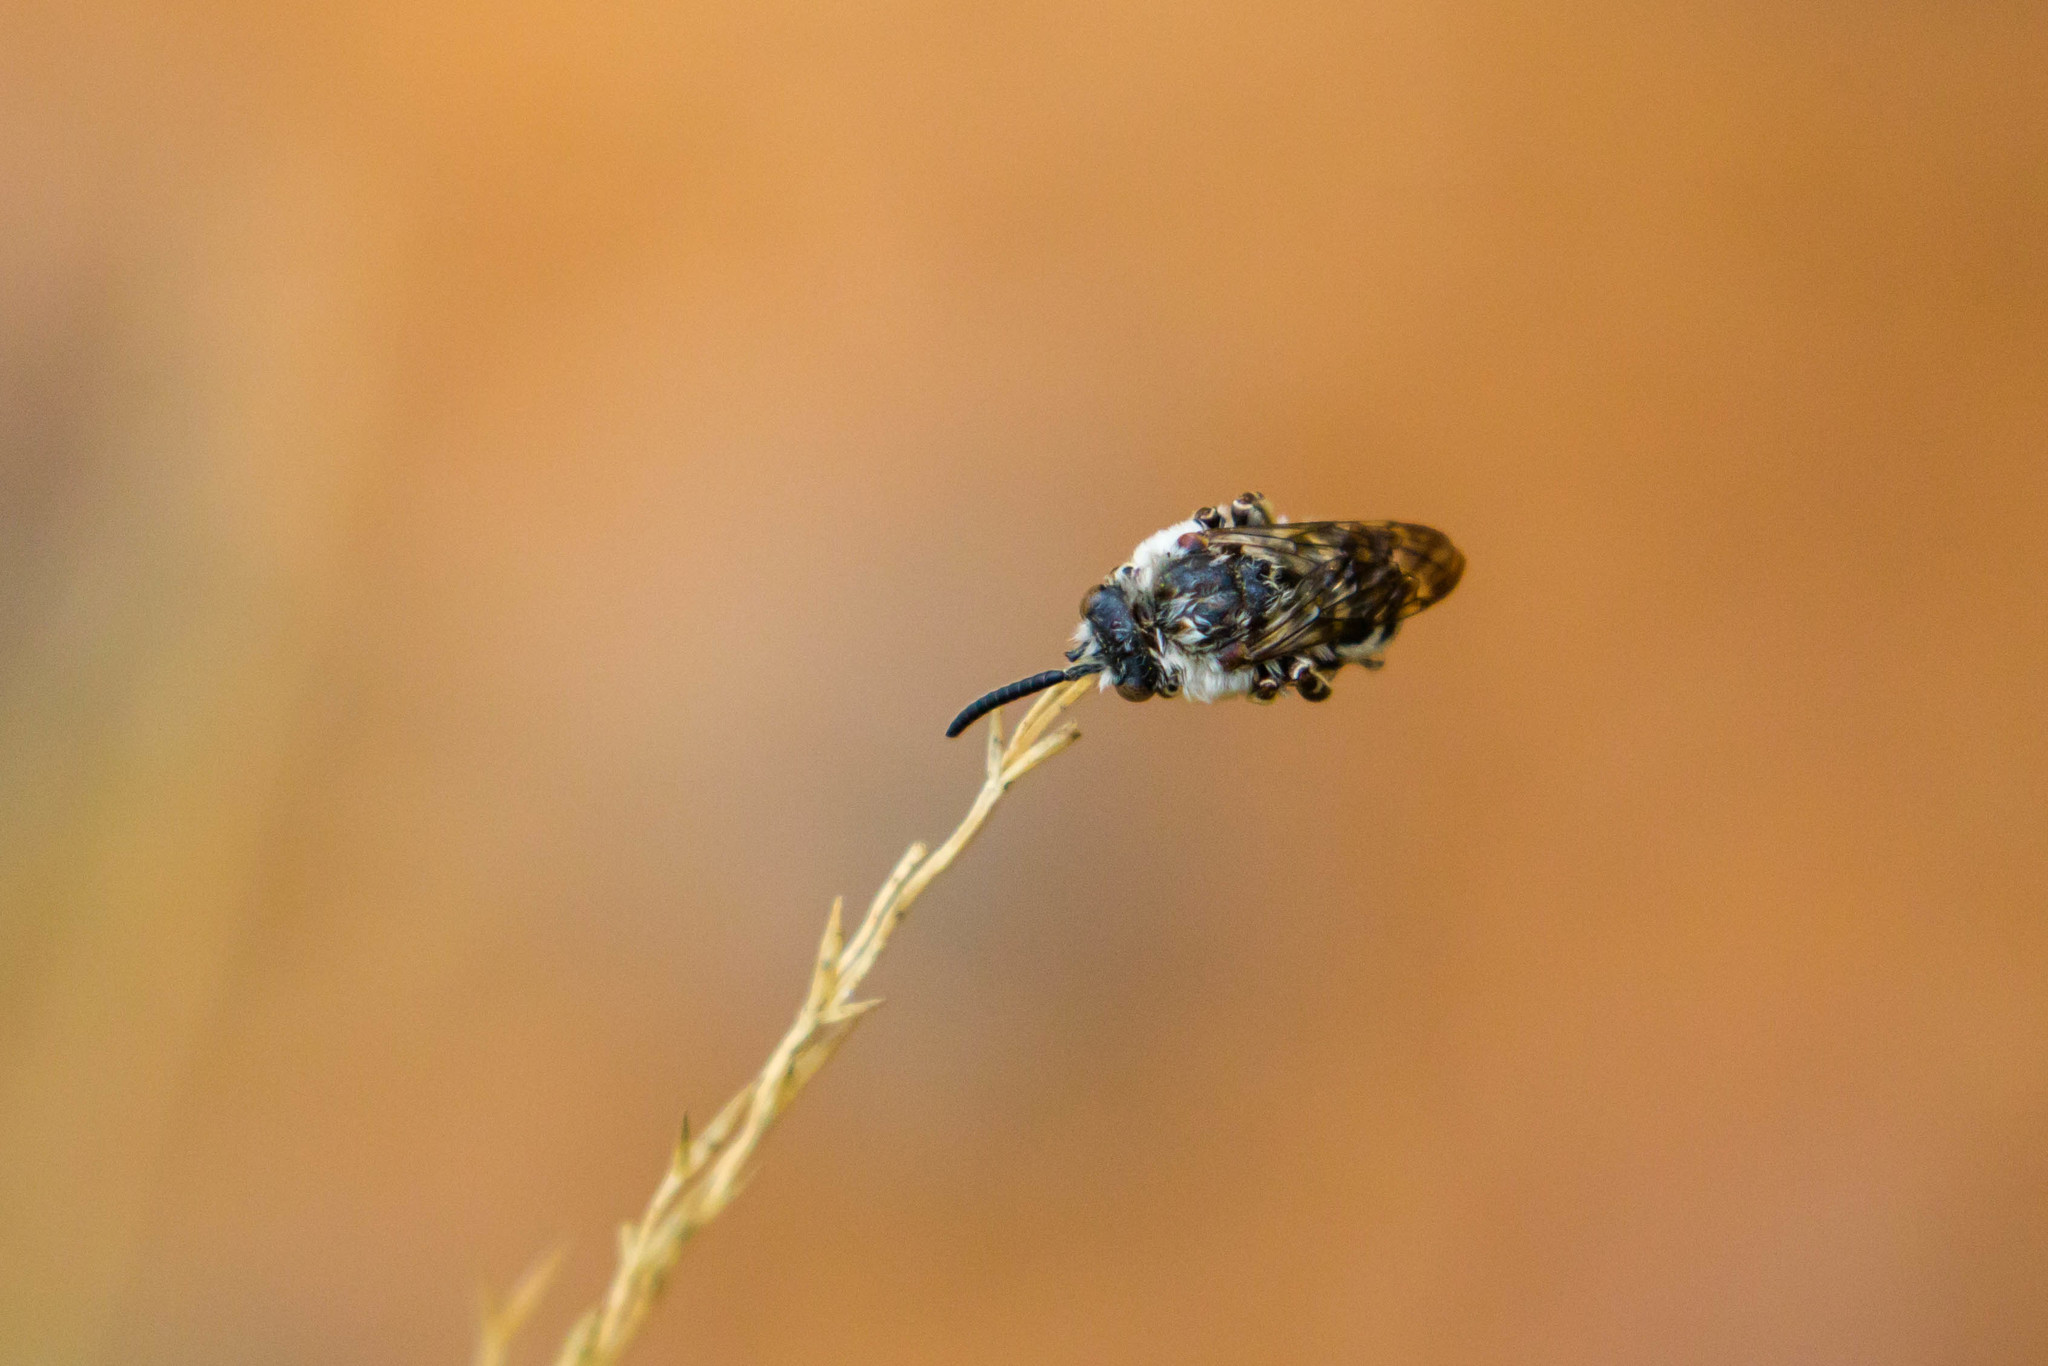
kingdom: Animalia
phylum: Arthropoda
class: Insecta
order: Hymenoptera
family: Apidae
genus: Brachymelecta
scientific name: Brachymelecta californica
